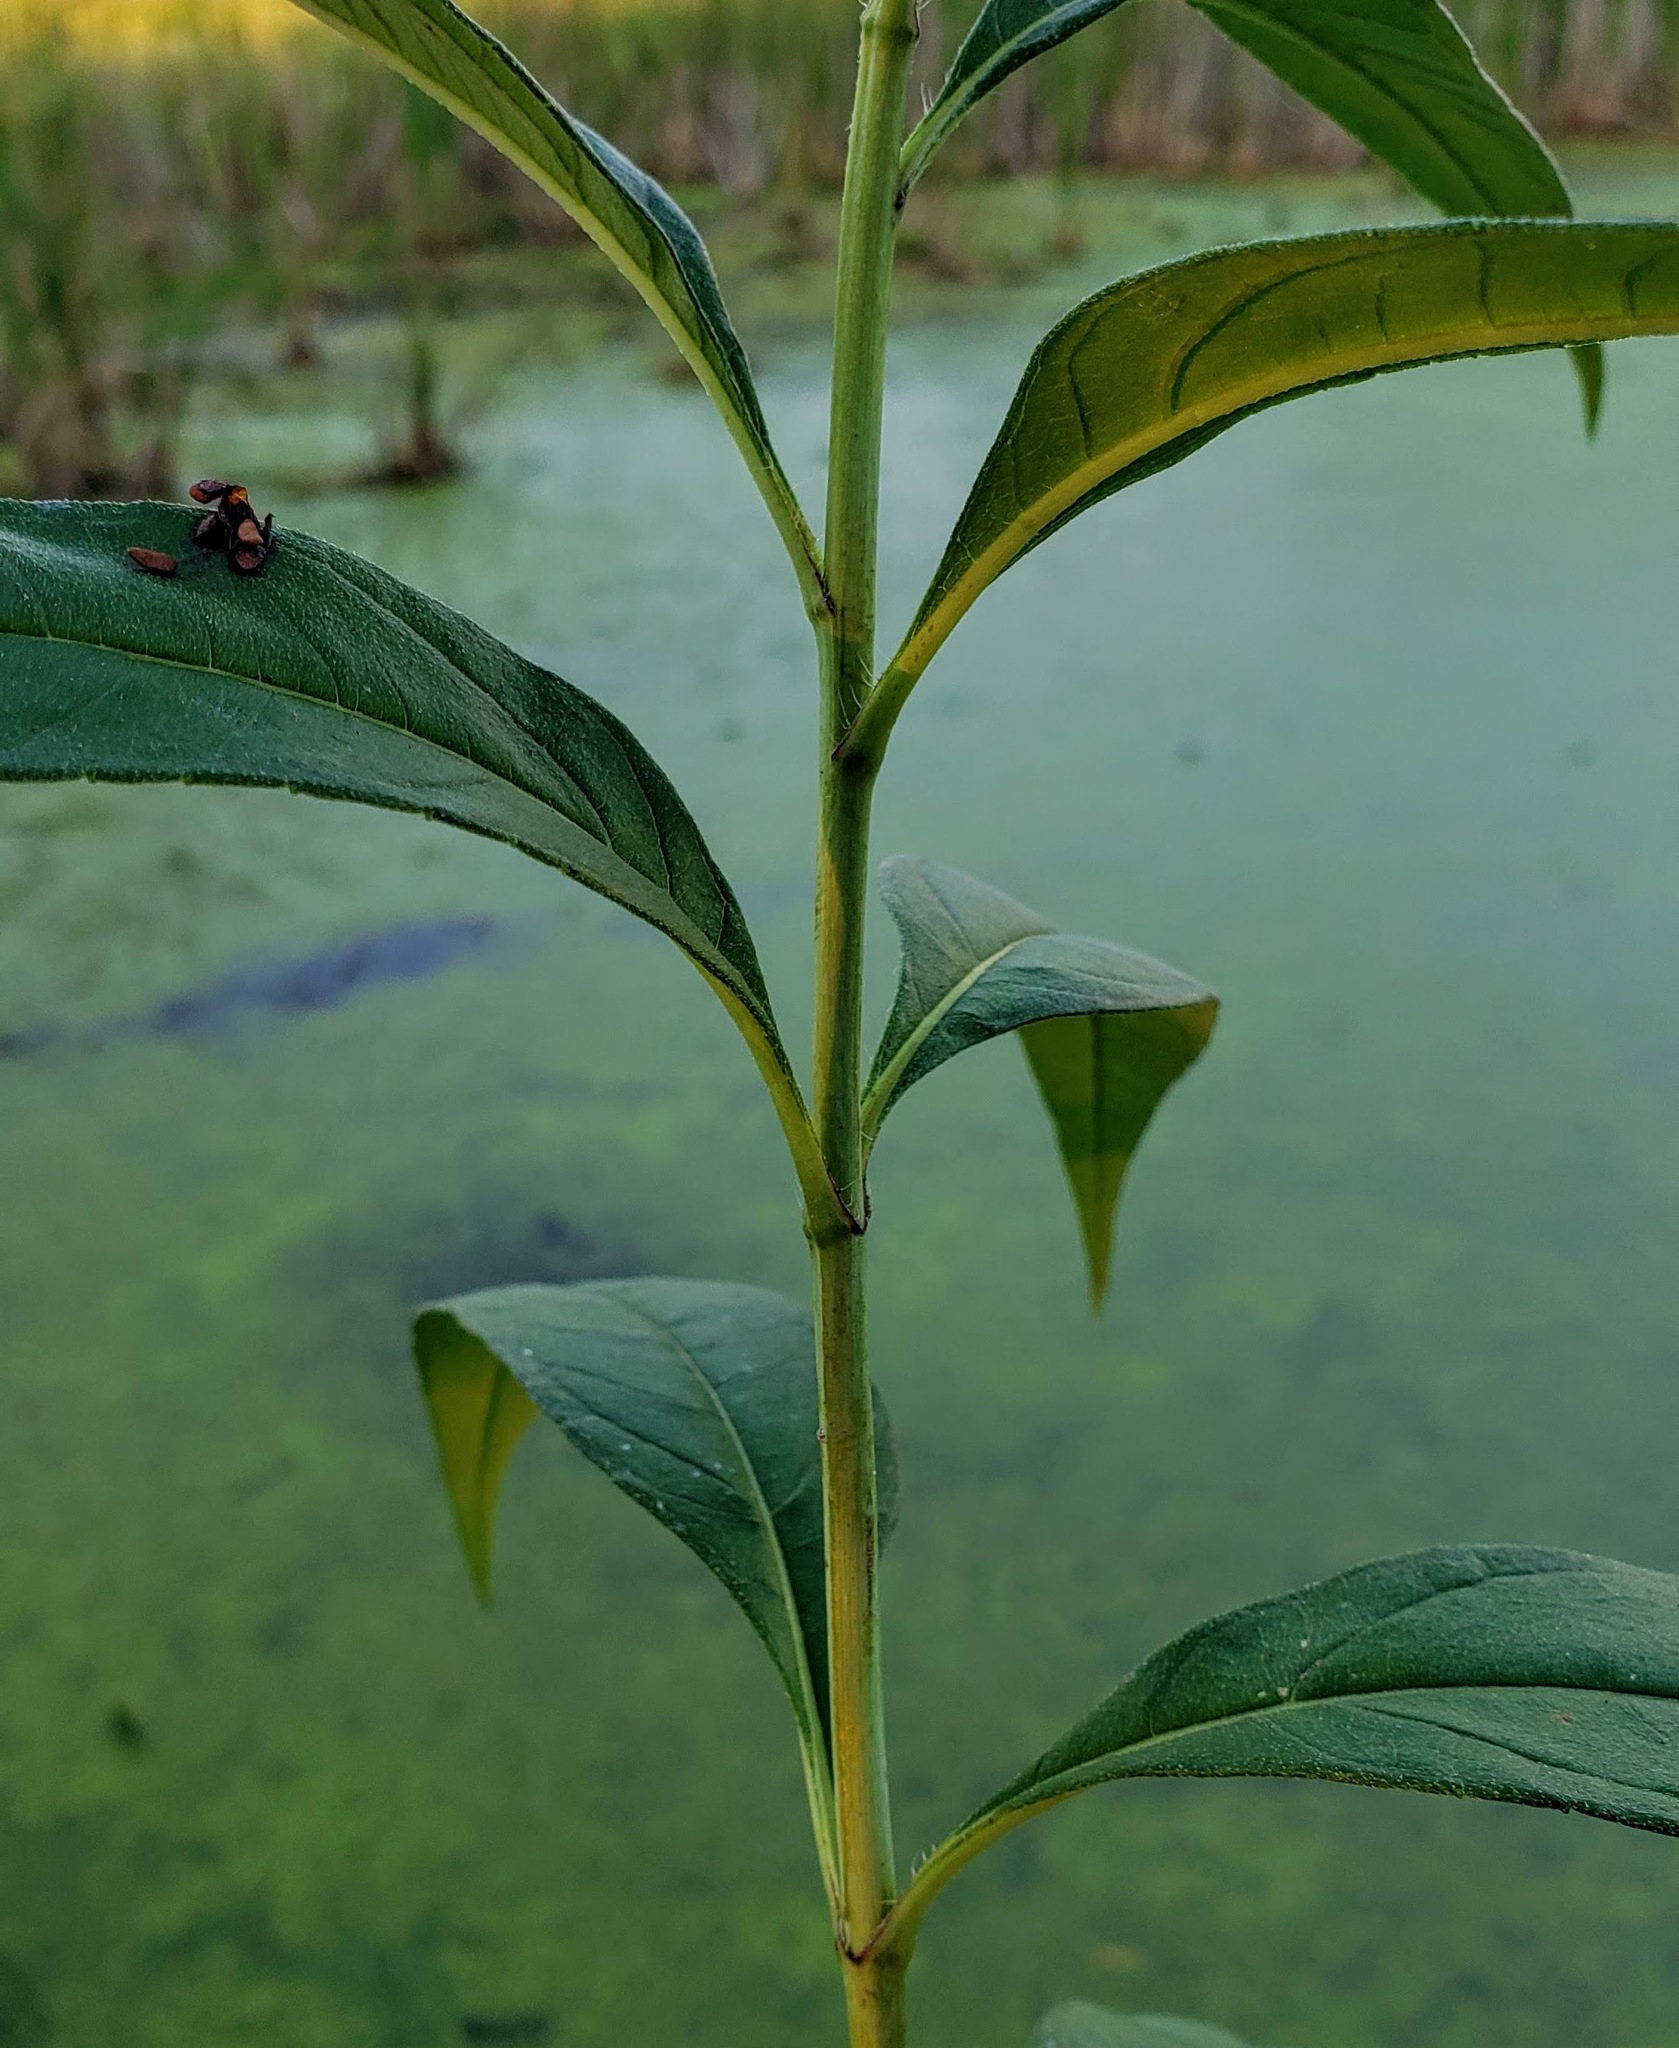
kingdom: Plantae
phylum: Tracheophyta
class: Magnoliopsida
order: Asterales
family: Asteraceae
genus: Helianthus
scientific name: Helianthus grosseserratus
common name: Sawtooth sunflower
